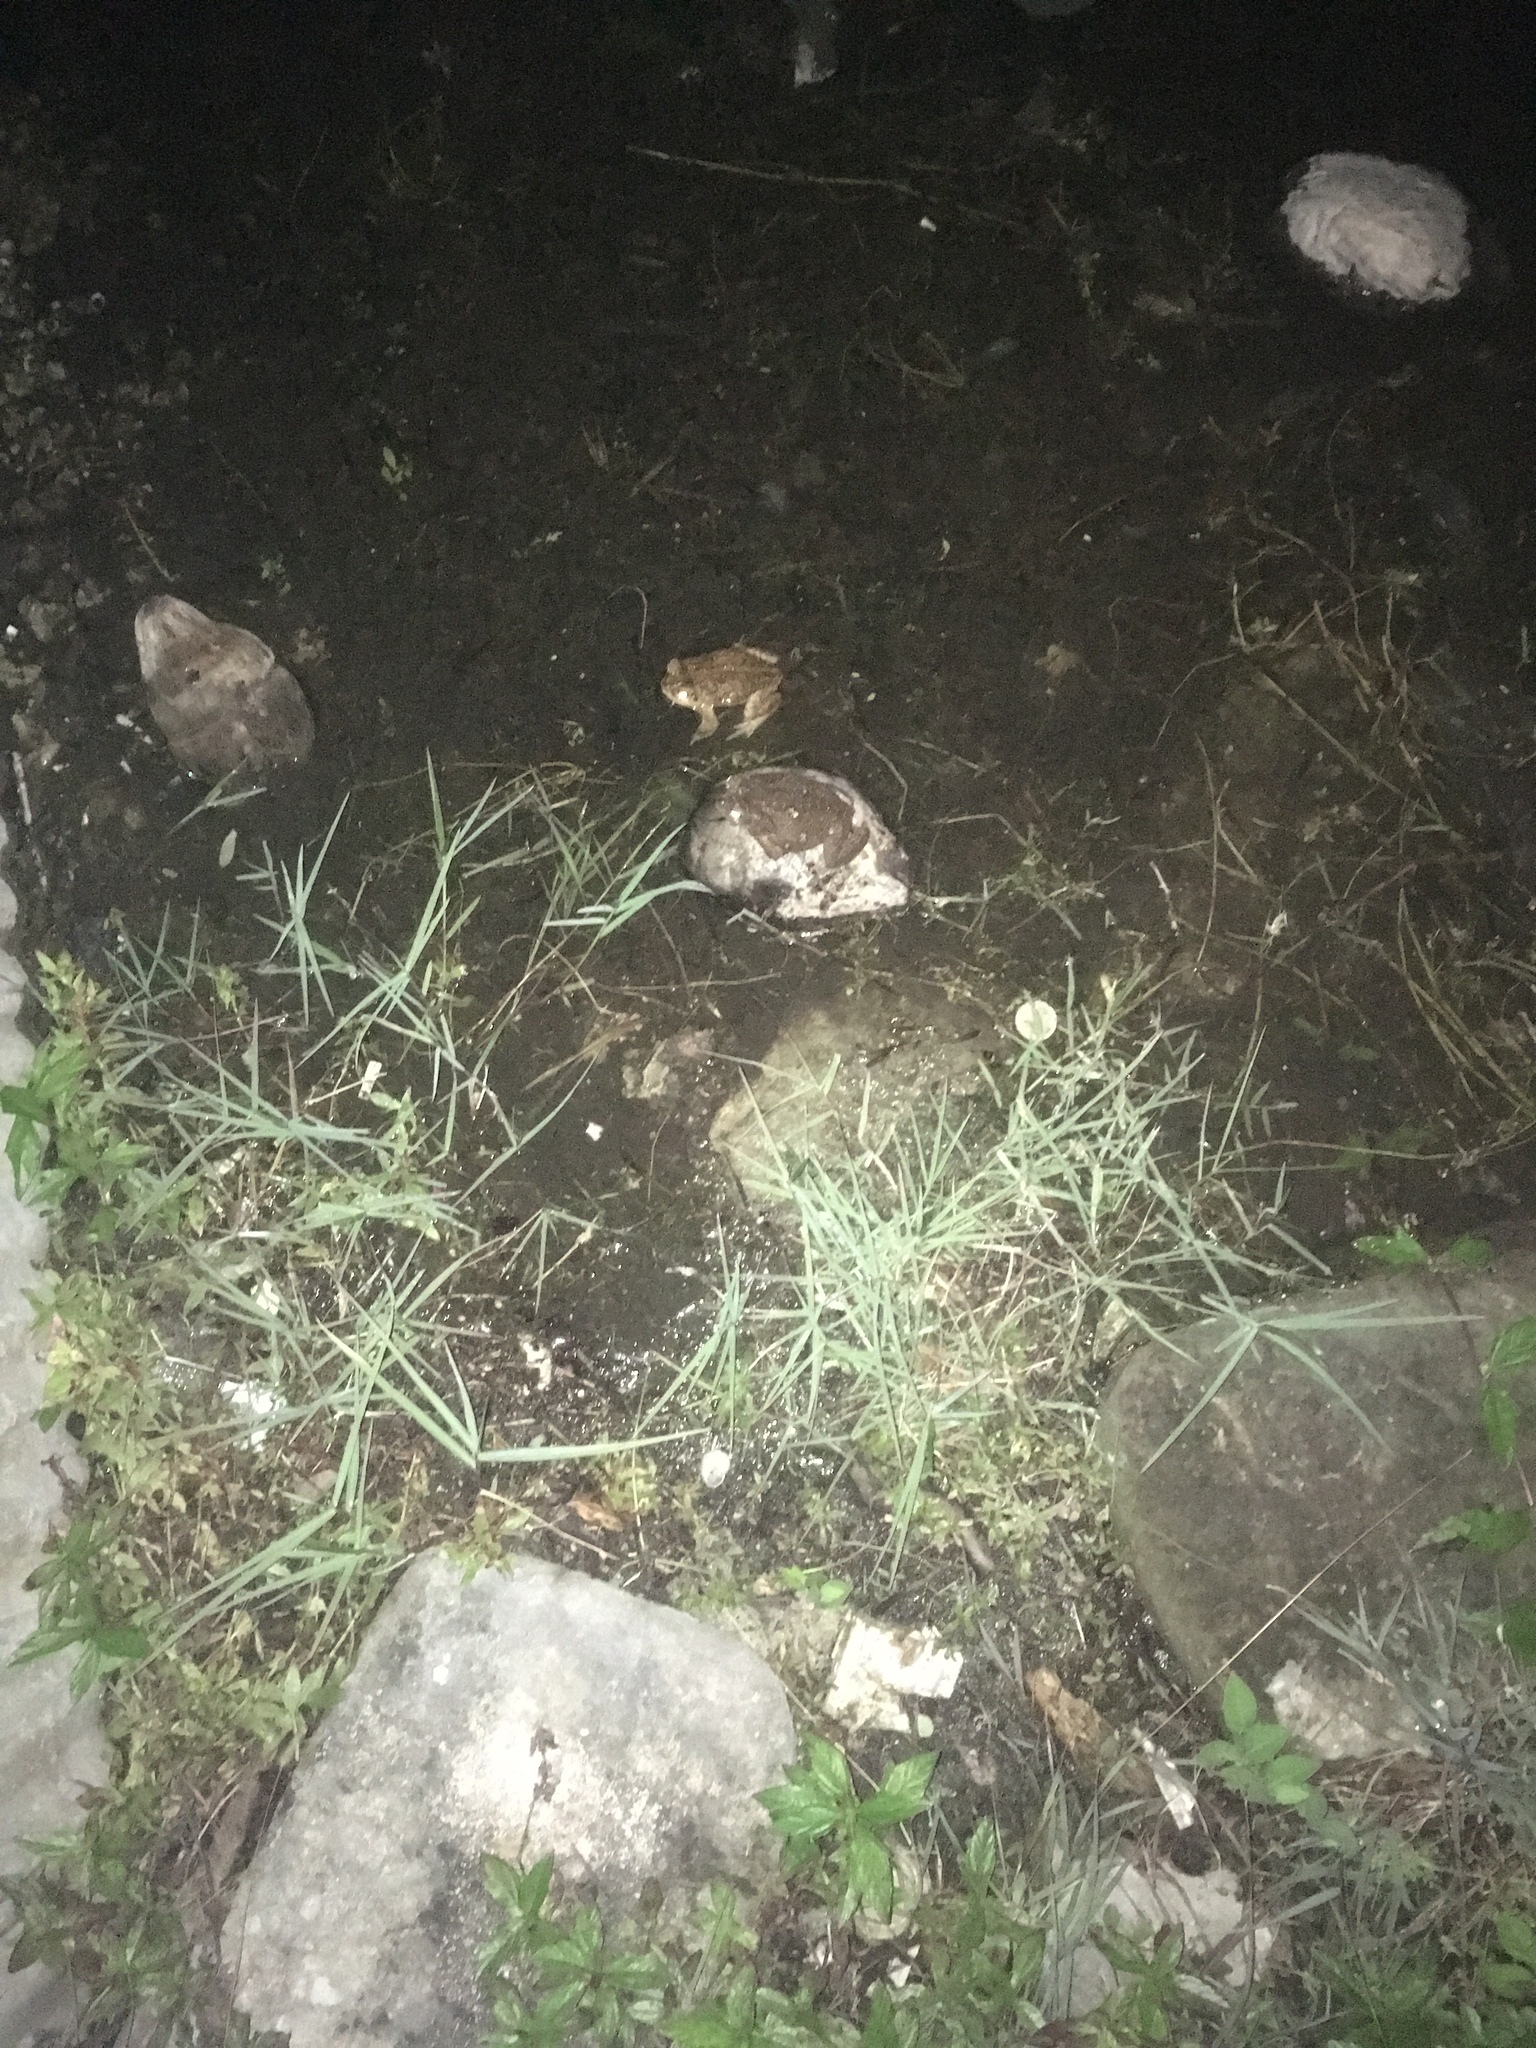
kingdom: Animalia
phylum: Chordata
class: Amphibia
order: Anura
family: Bufonidae
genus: Rhinella
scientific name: Rhinella marina
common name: Cane toad
